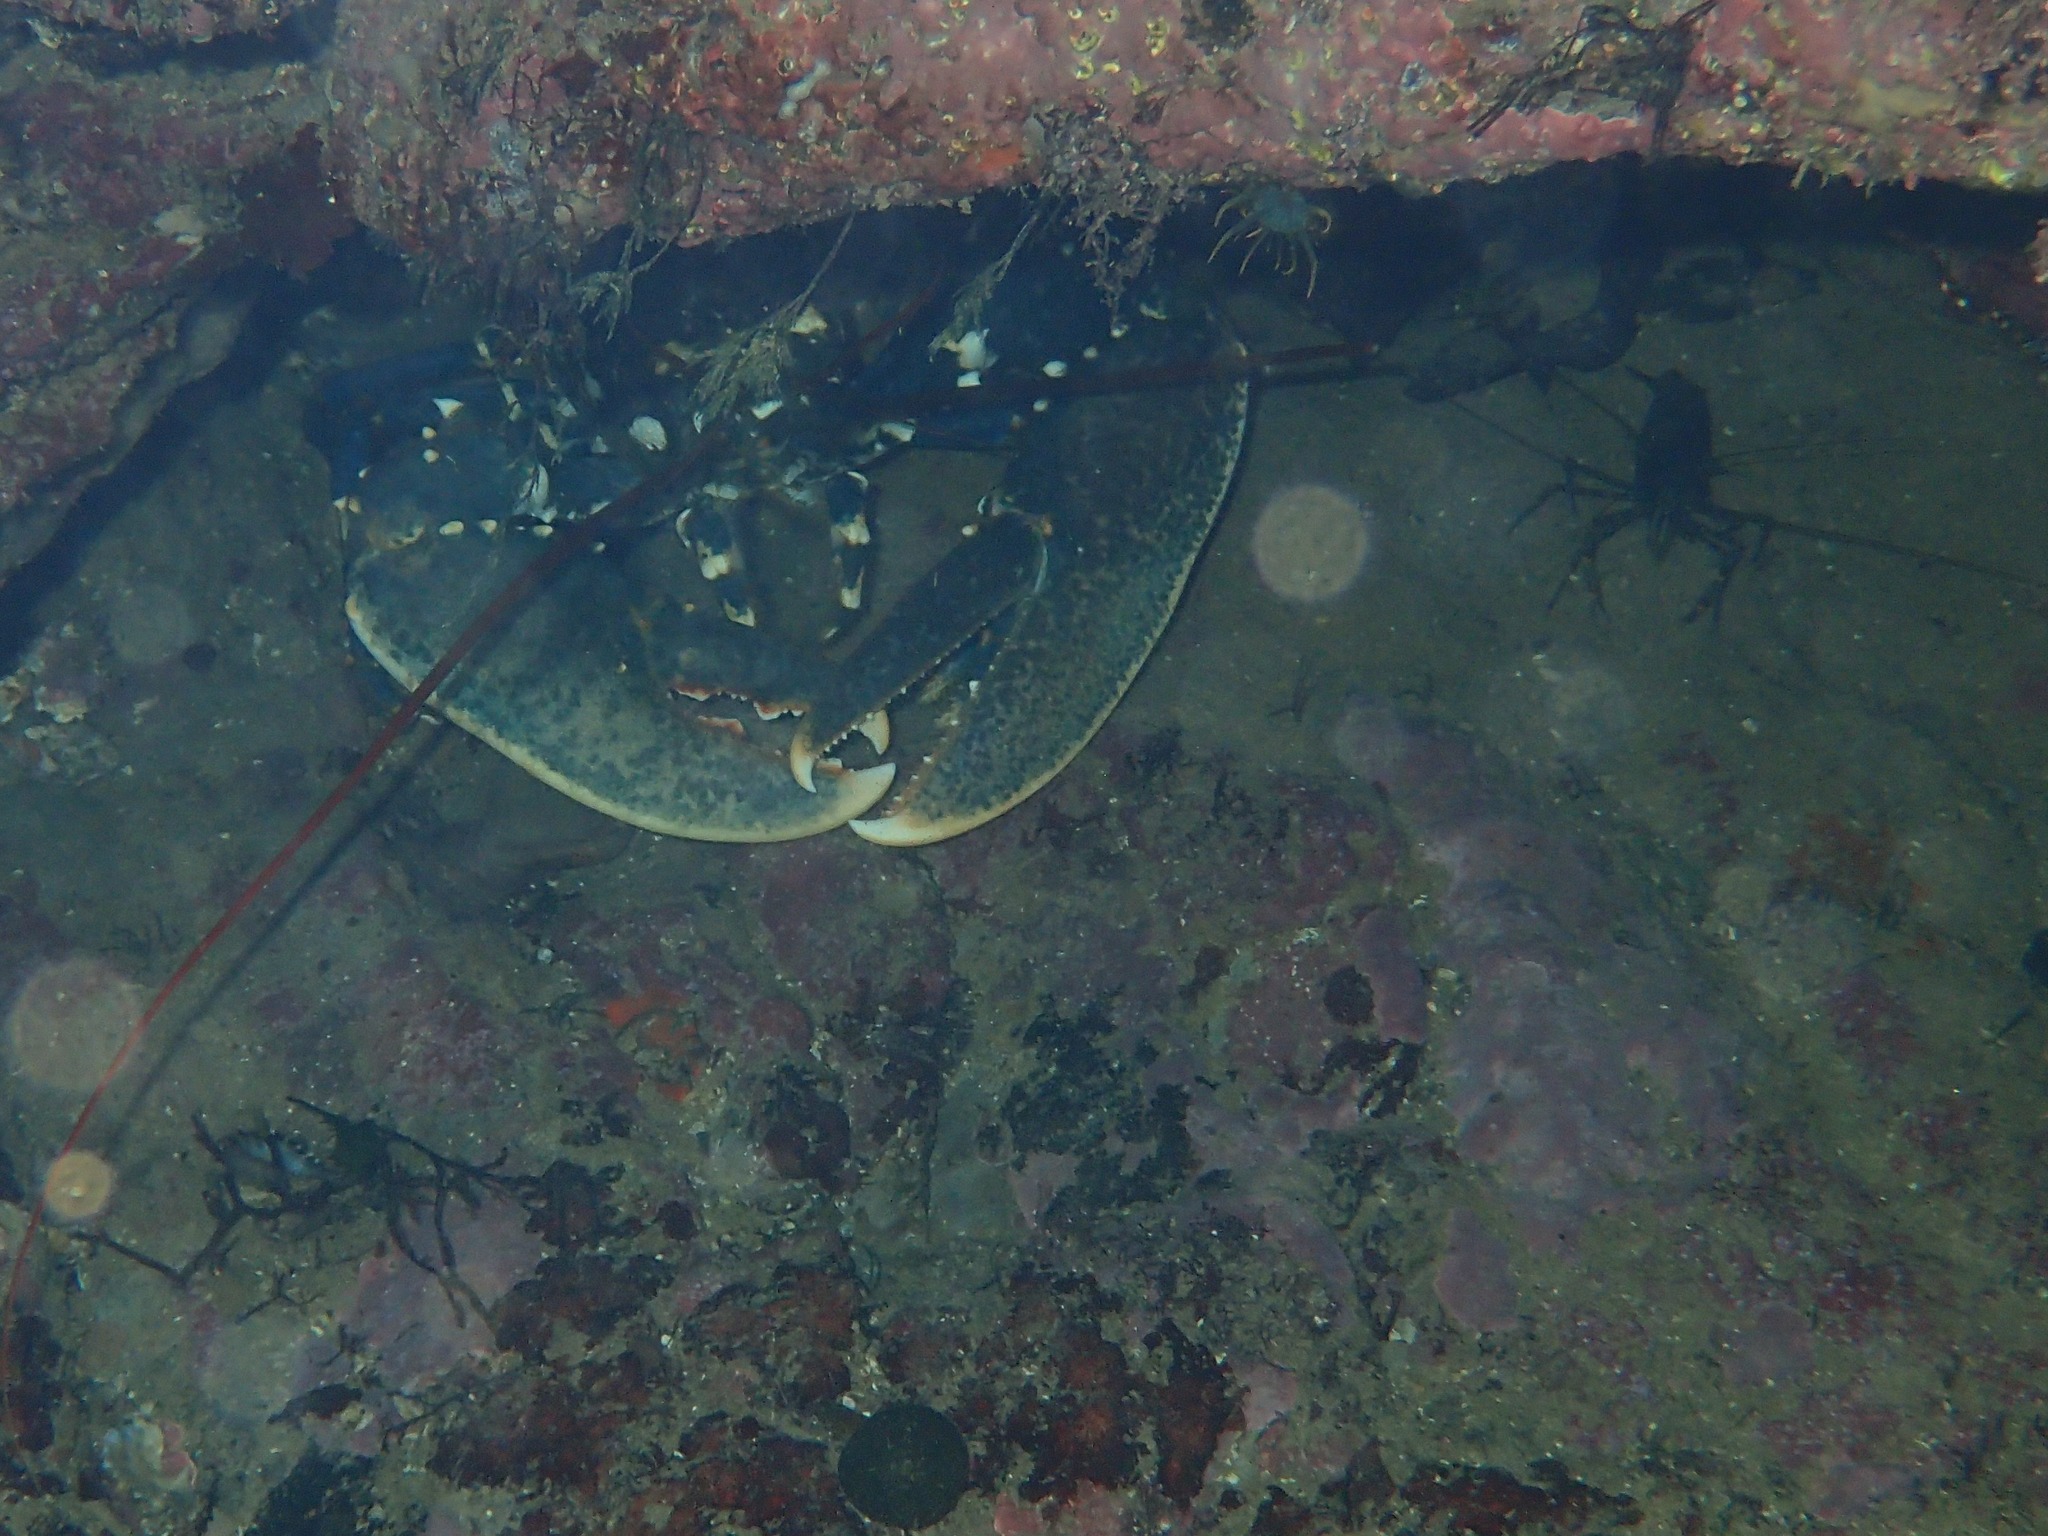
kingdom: Animalia
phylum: Arthropoda
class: Malacostraca
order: Decapoda
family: Nephropidae
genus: Homarus
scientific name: Homarus gammarus
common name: European lobster
